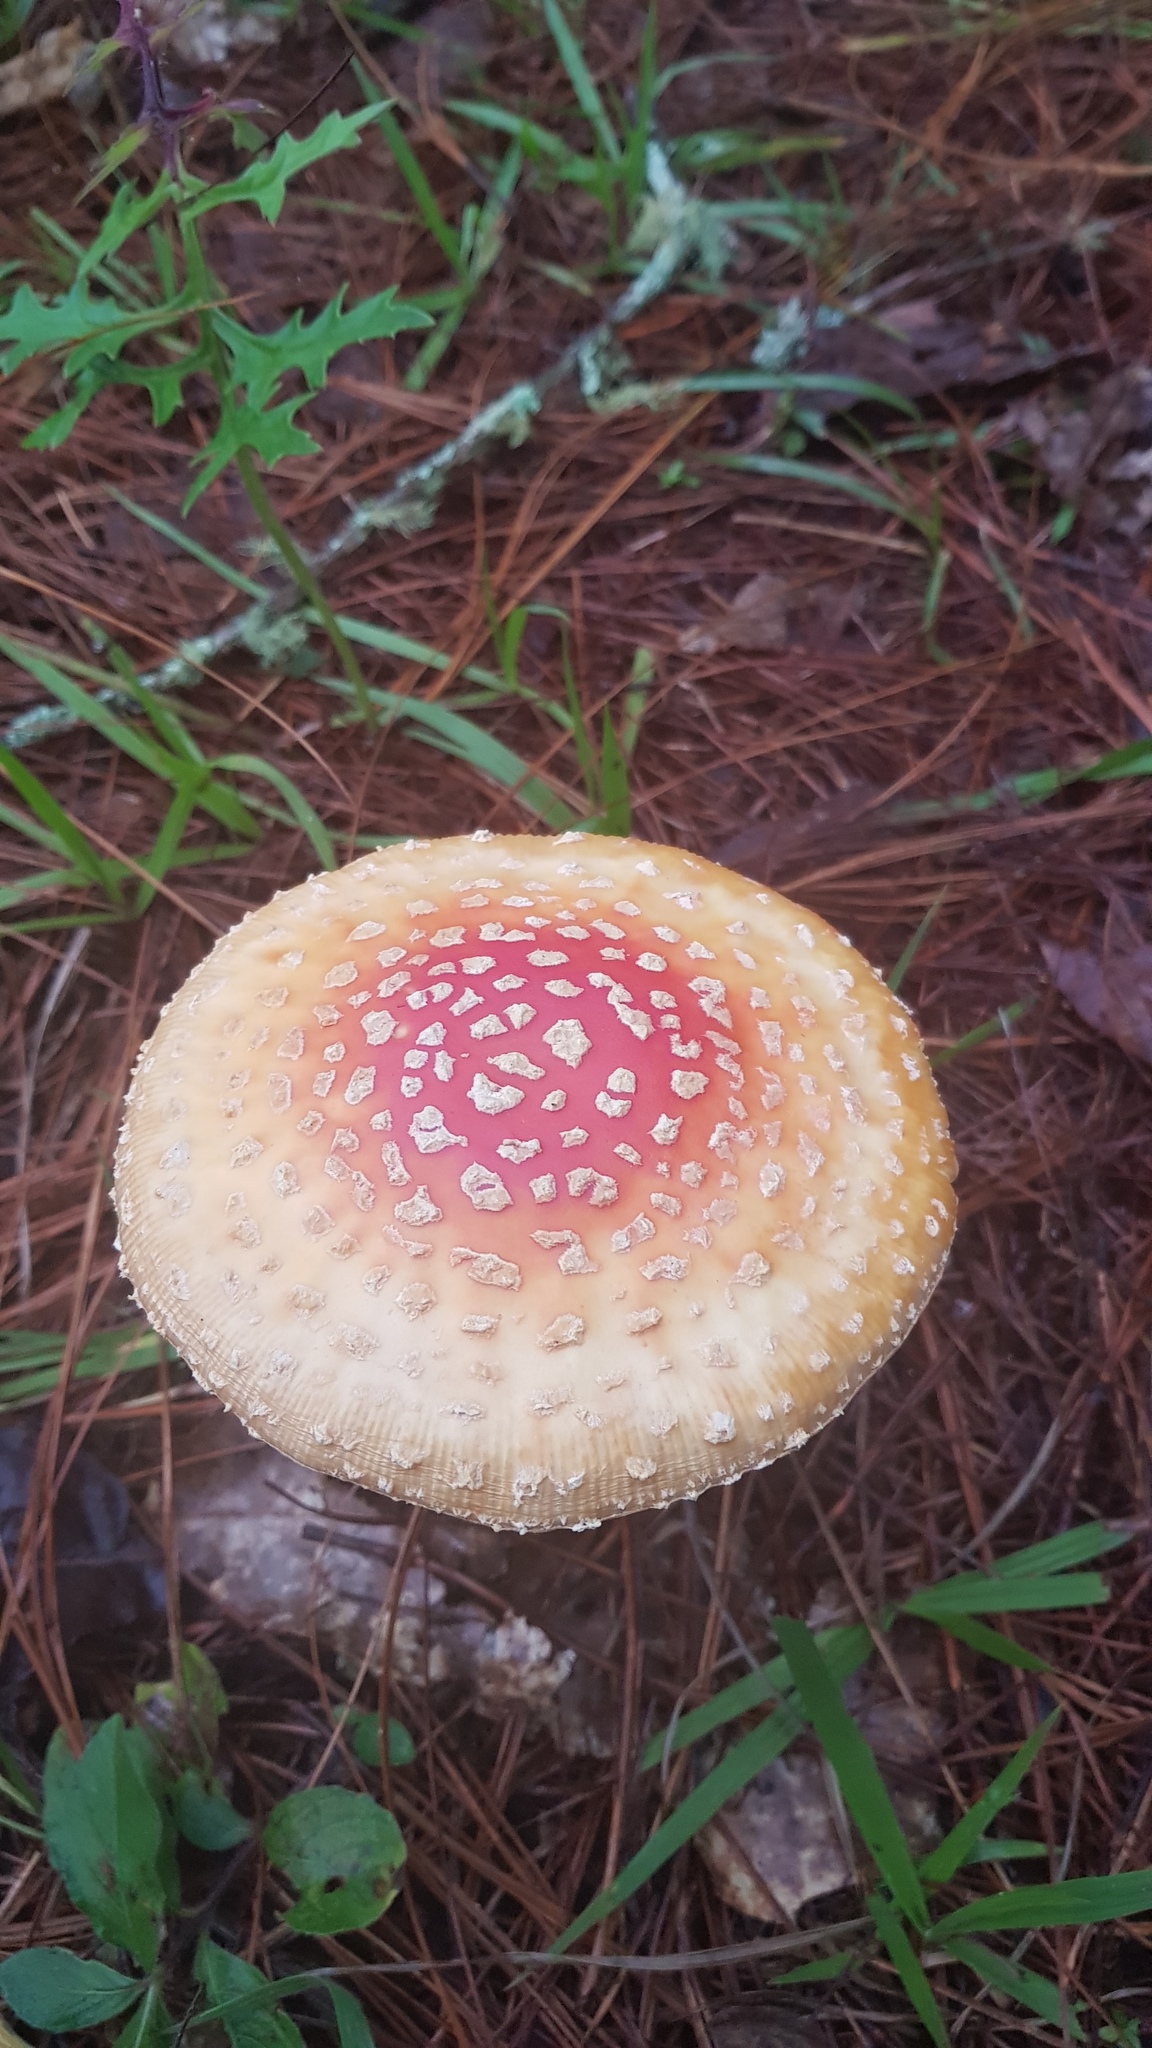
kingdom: Fungi
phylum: Basidiomycota
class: Agaricomycetes
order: Agaricales
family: Amanitaceae
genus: Amanita
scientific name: Amanita muscaria
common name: Fly agaric
